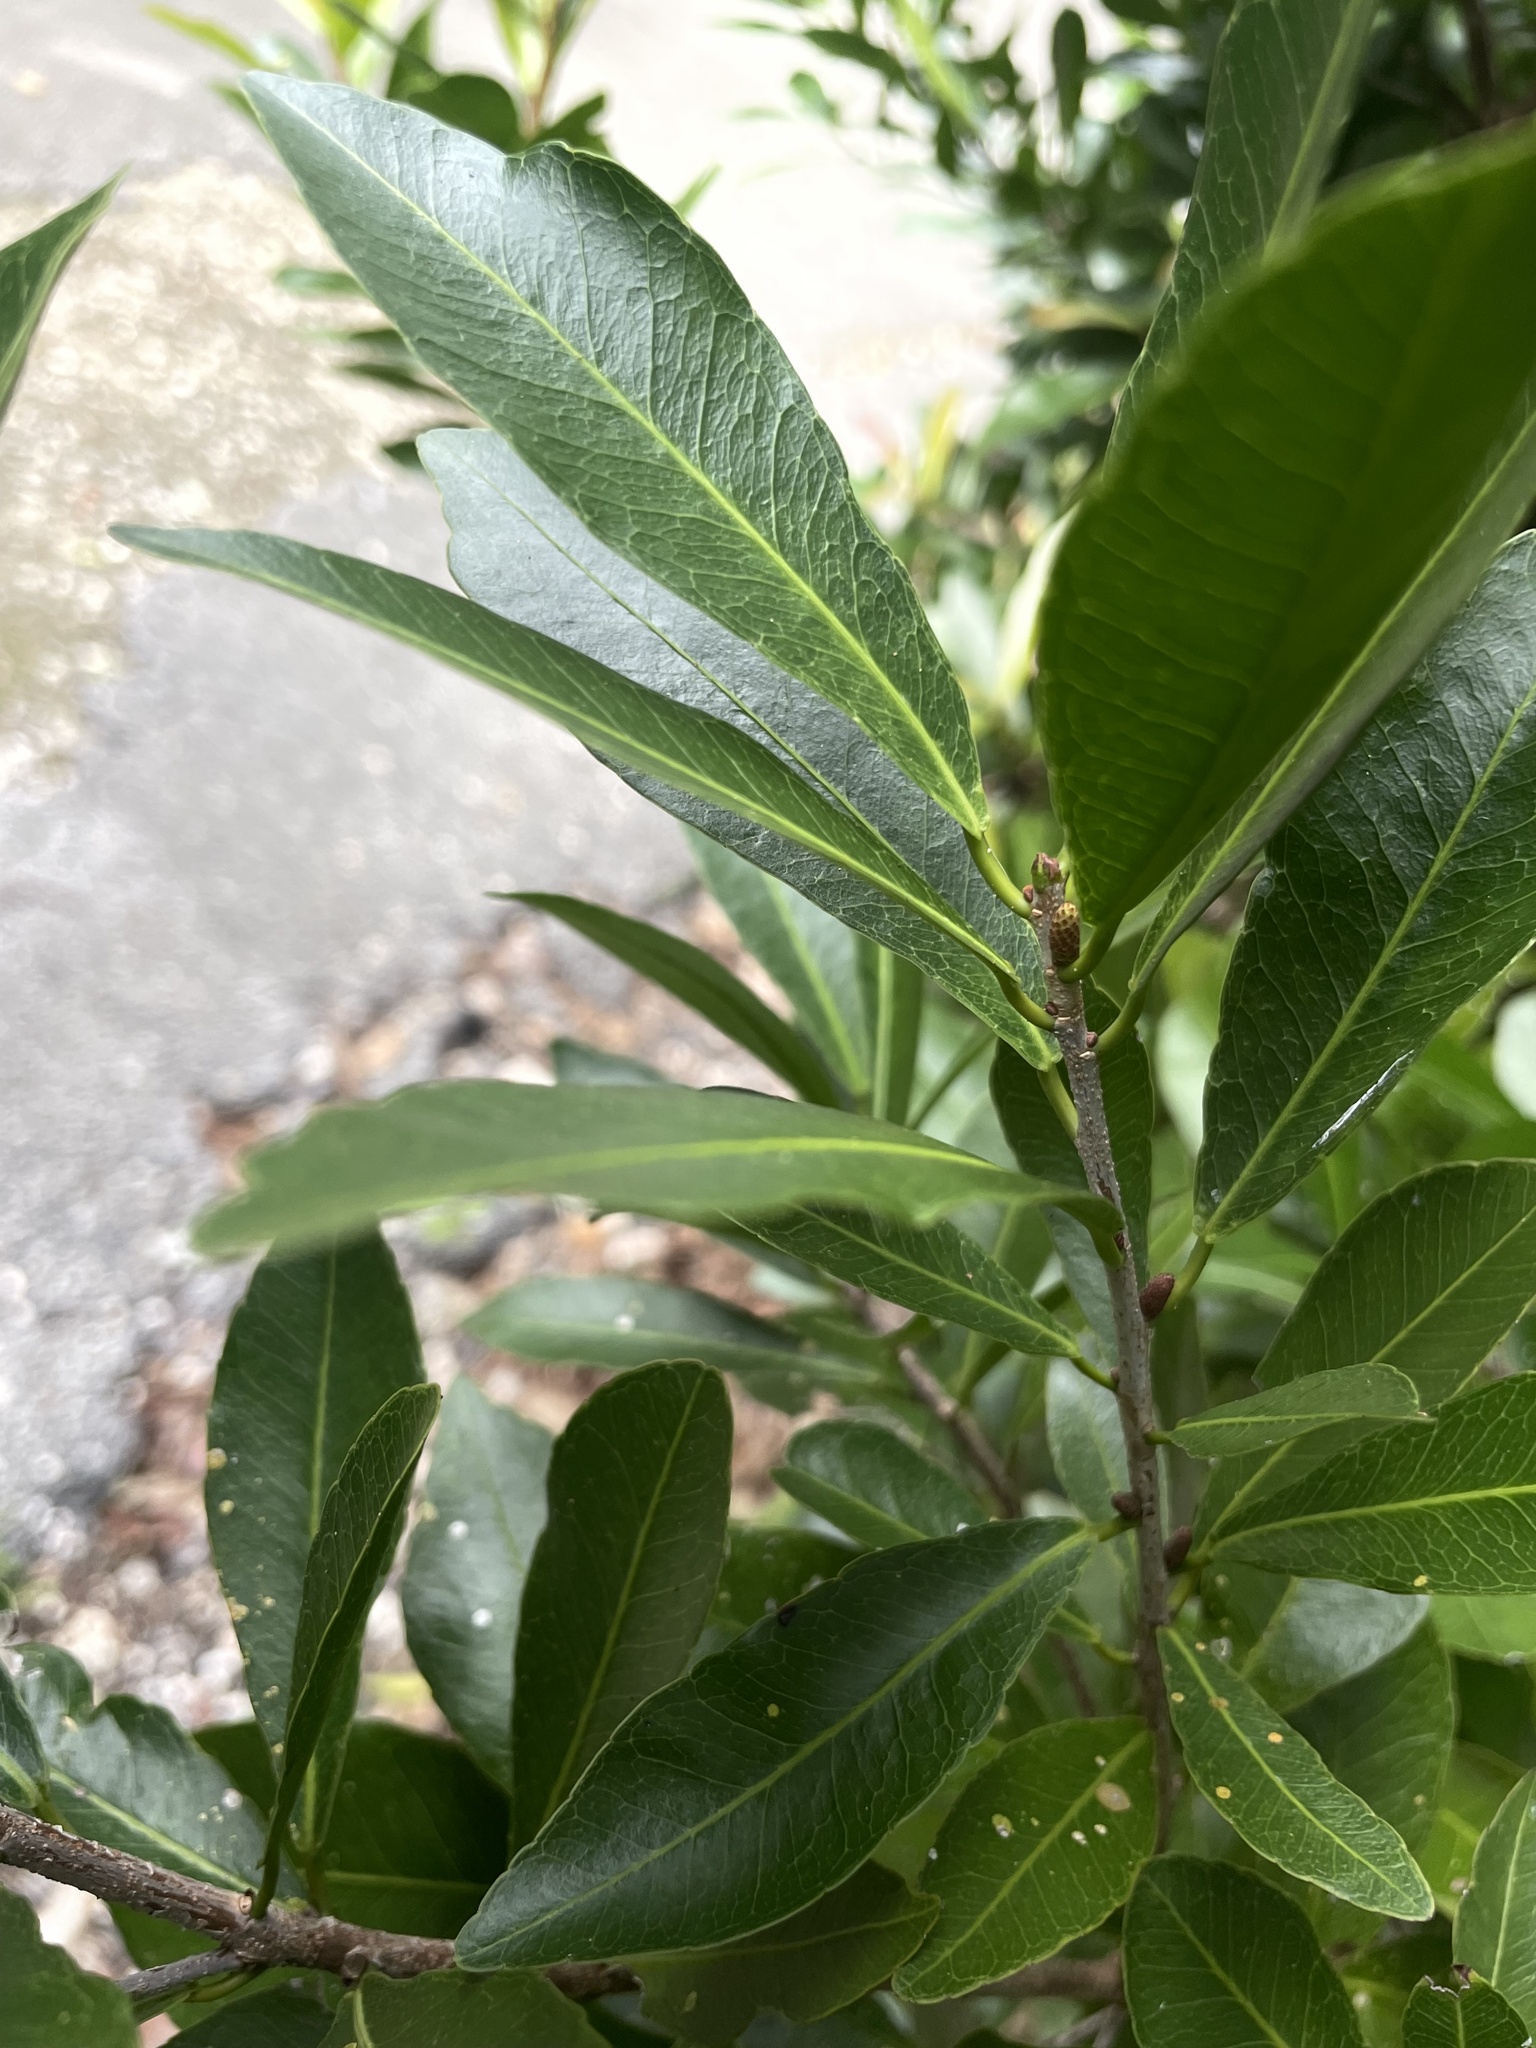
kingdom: Plantae
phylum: Tracheophyta
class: Magnoliopsida
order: Malpighiales
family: Euphorbiaceae
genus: Gymnanthes
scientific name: Gymnanthes lucida
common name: Oysterwood
